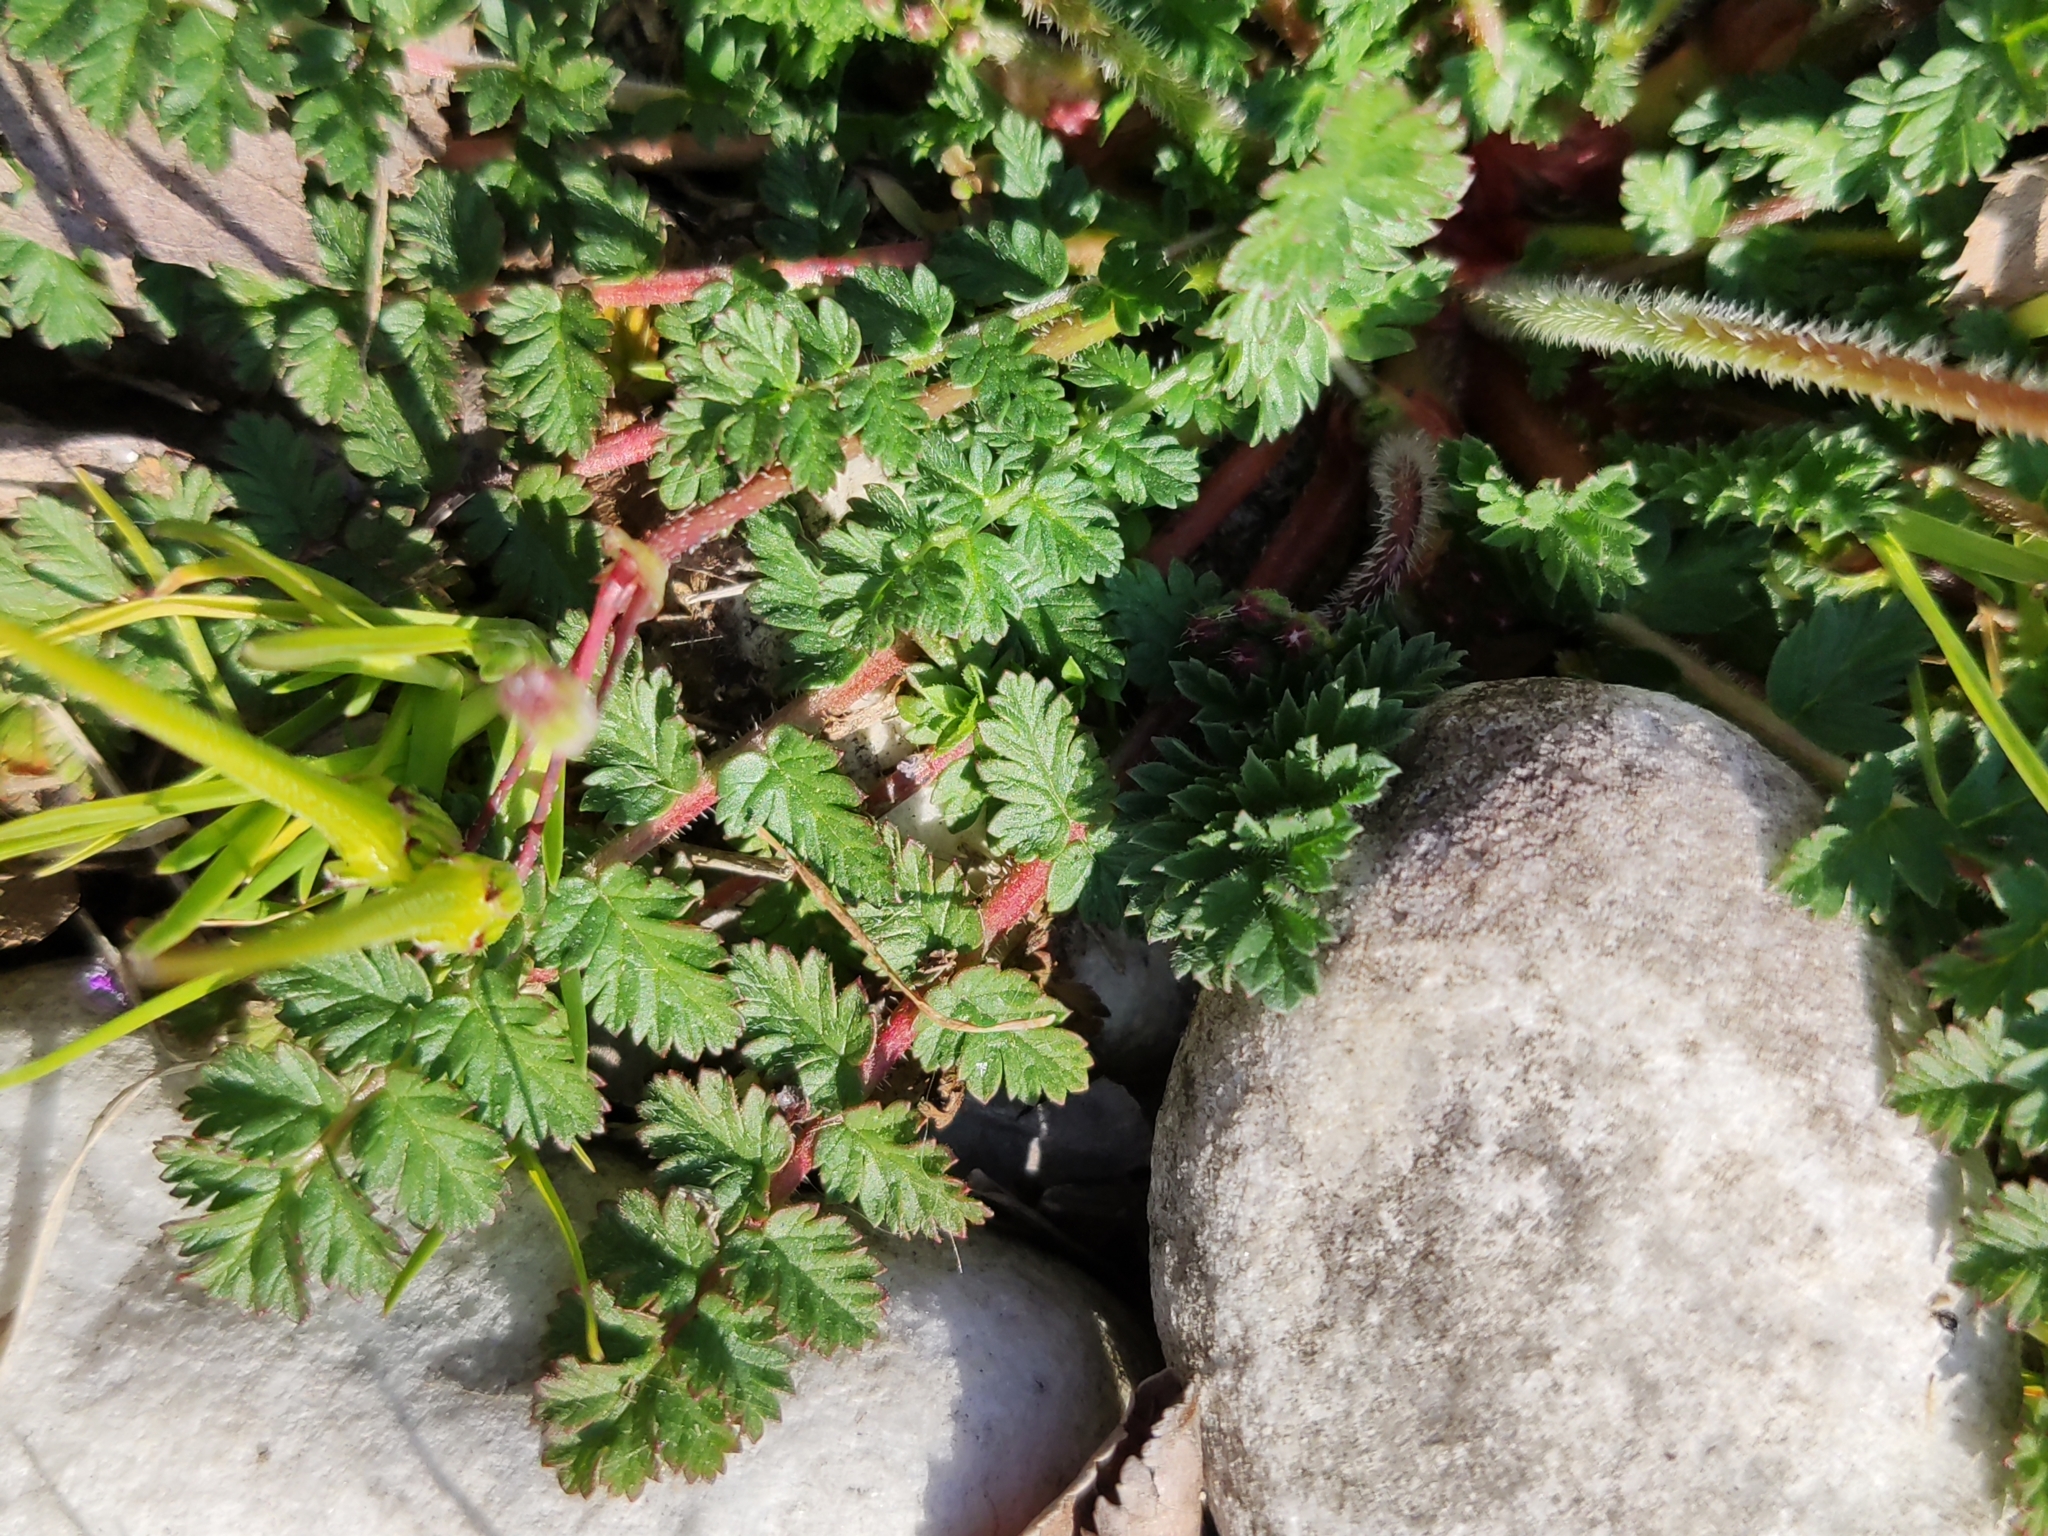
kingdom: Plantae
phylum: Tracheophyta
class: Magnoliopsida
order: Geraniales
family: Geraniaceae
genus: Erodium
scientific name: Erodium cicutarium
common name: Common stork's-bill
